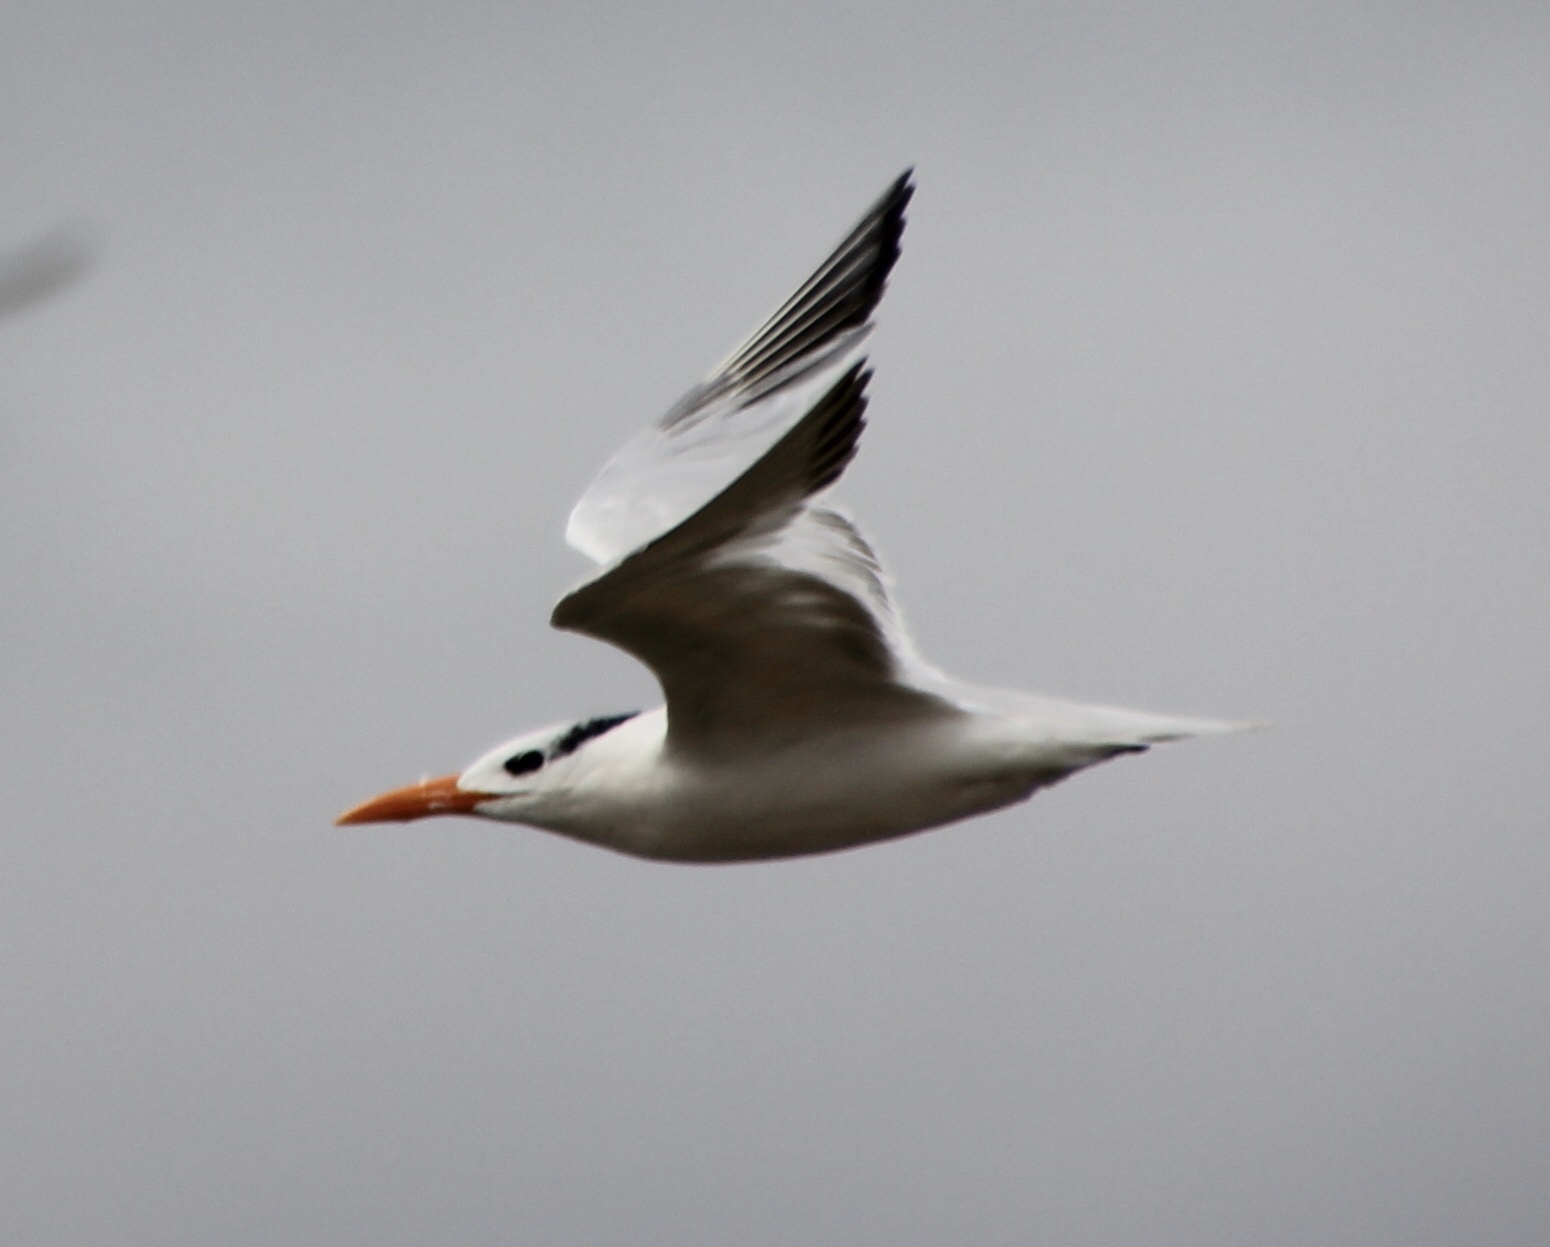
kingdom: Animalia
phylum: Chordata
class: Aves
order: Charadriiformes
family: Laridae
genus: Thalasseus
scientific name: Thalasseus maximus
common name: Royal tern
